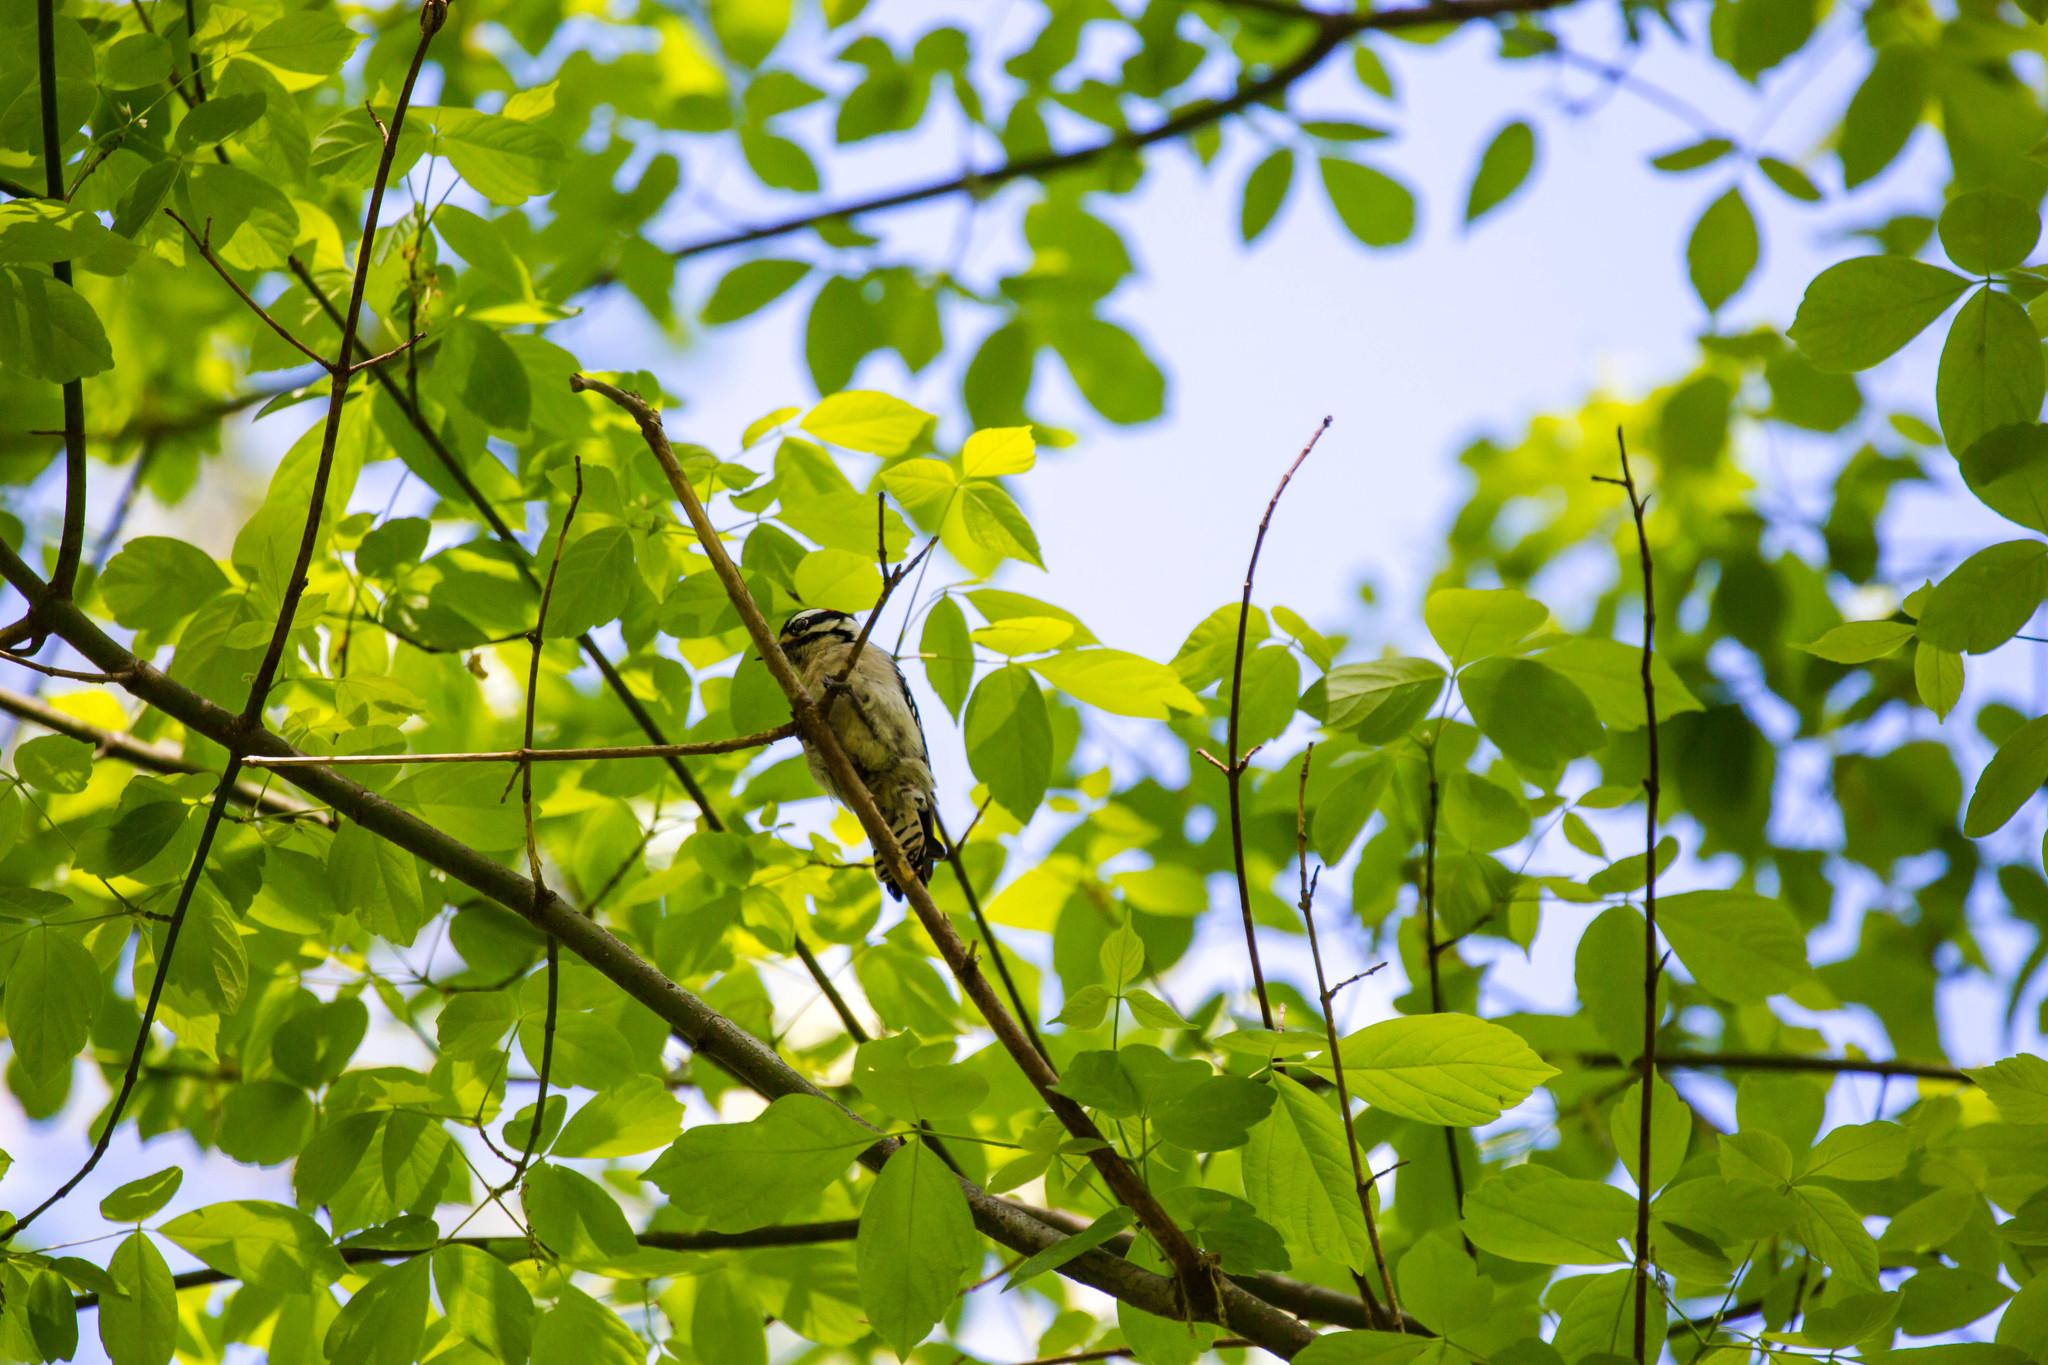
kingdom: Animalia
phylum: Chordata
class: Aves
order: Piciformes
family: Picidae
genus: Dryobates
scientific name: Dryobates pubescens
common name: Downy woodpecker
